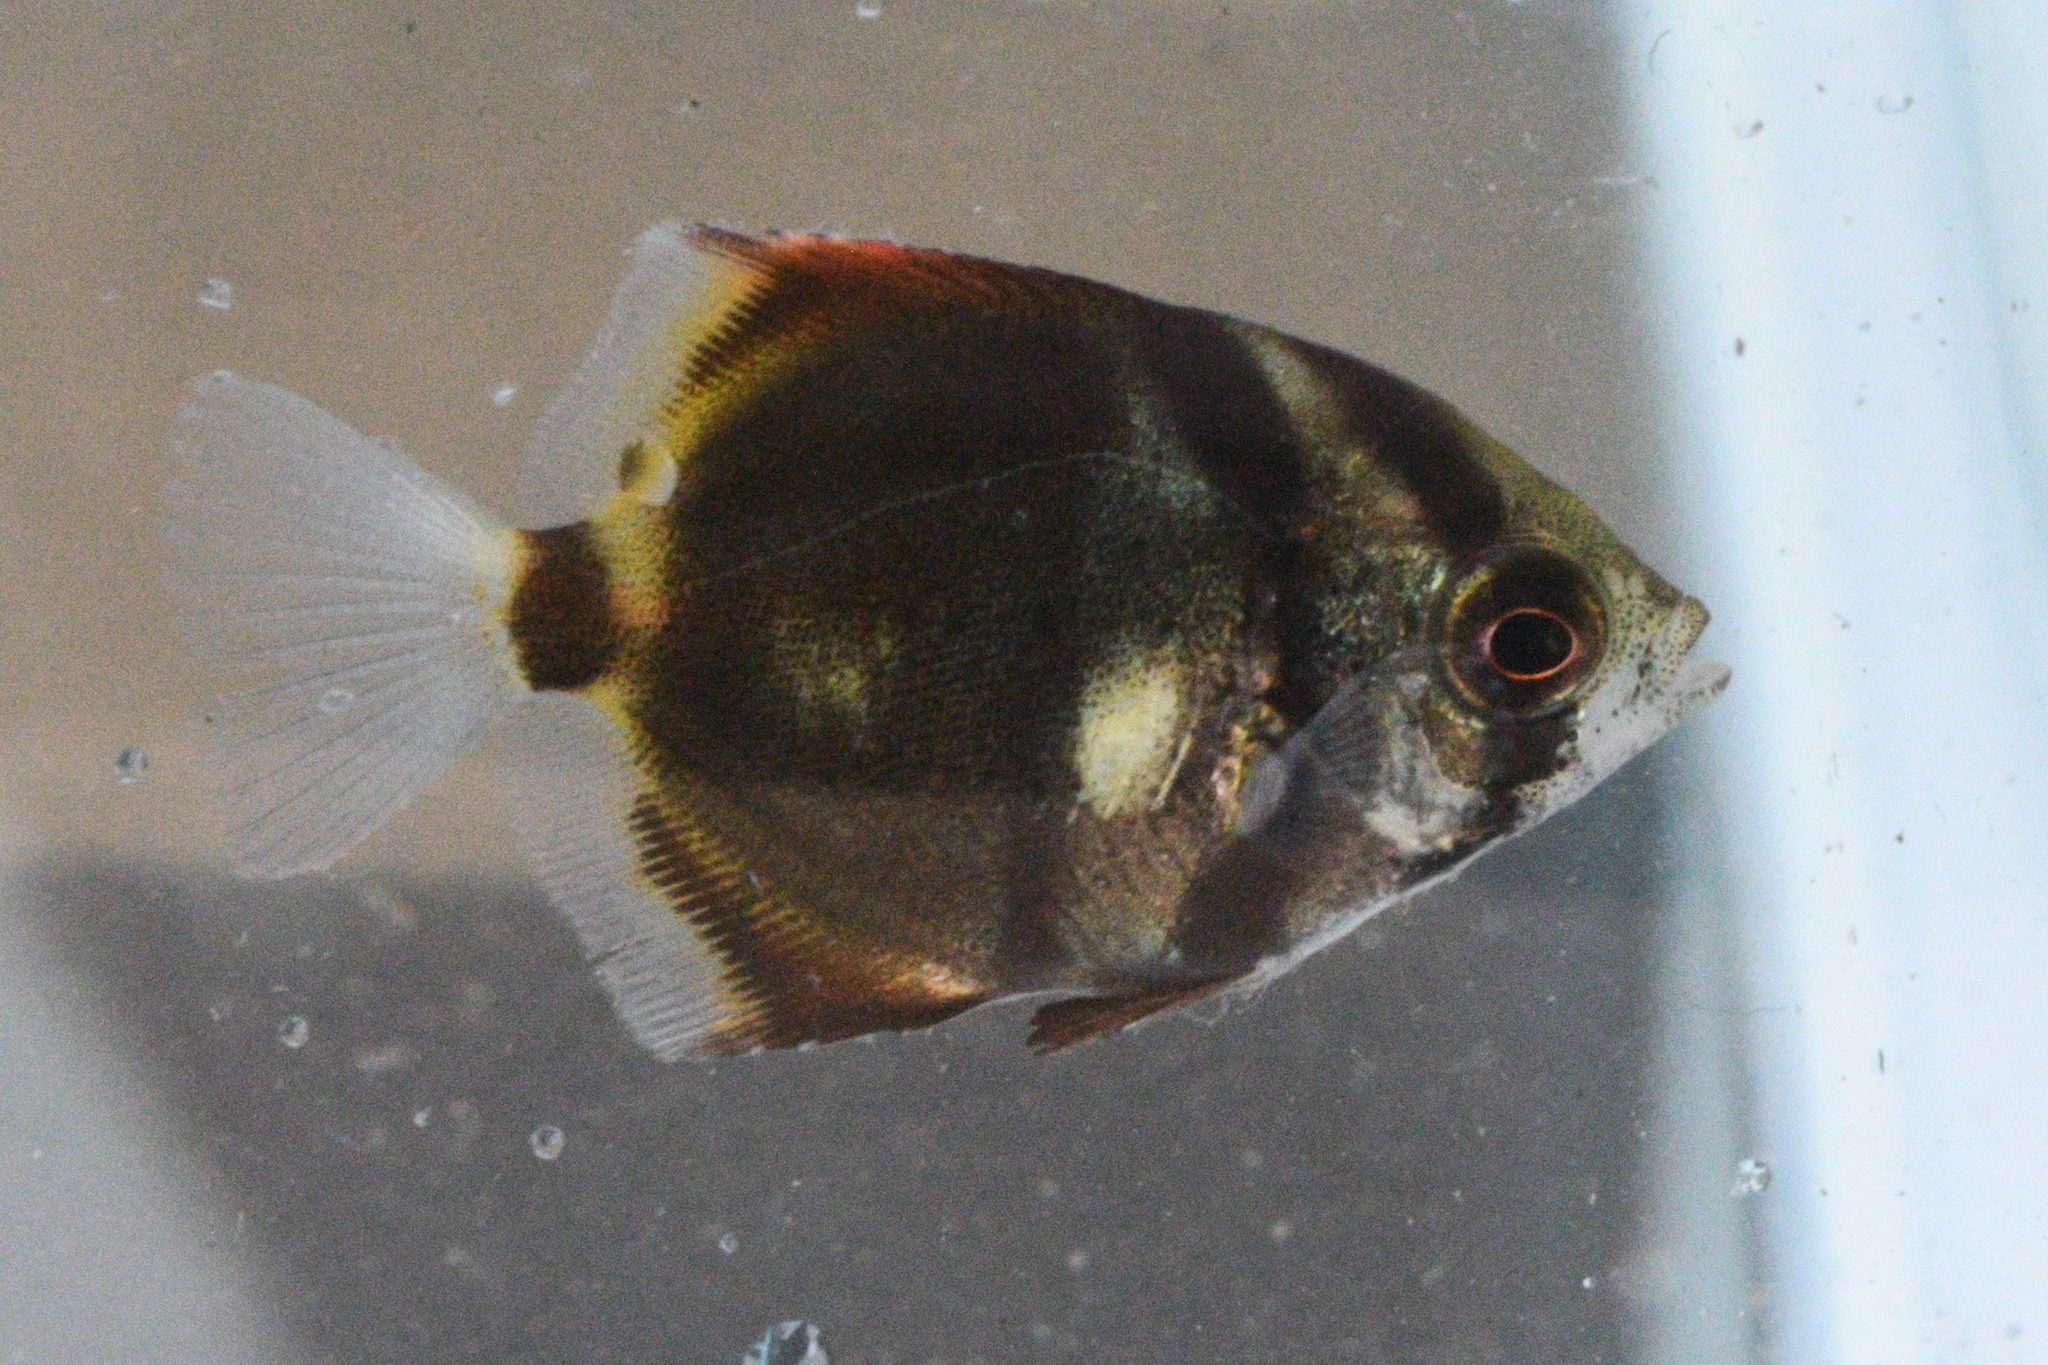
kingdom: Animalia
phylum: Chordata
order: Perciformes
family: Monodactylidae
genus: Monodactylus
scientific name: Monodactylus argenteus
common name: Silver moony
